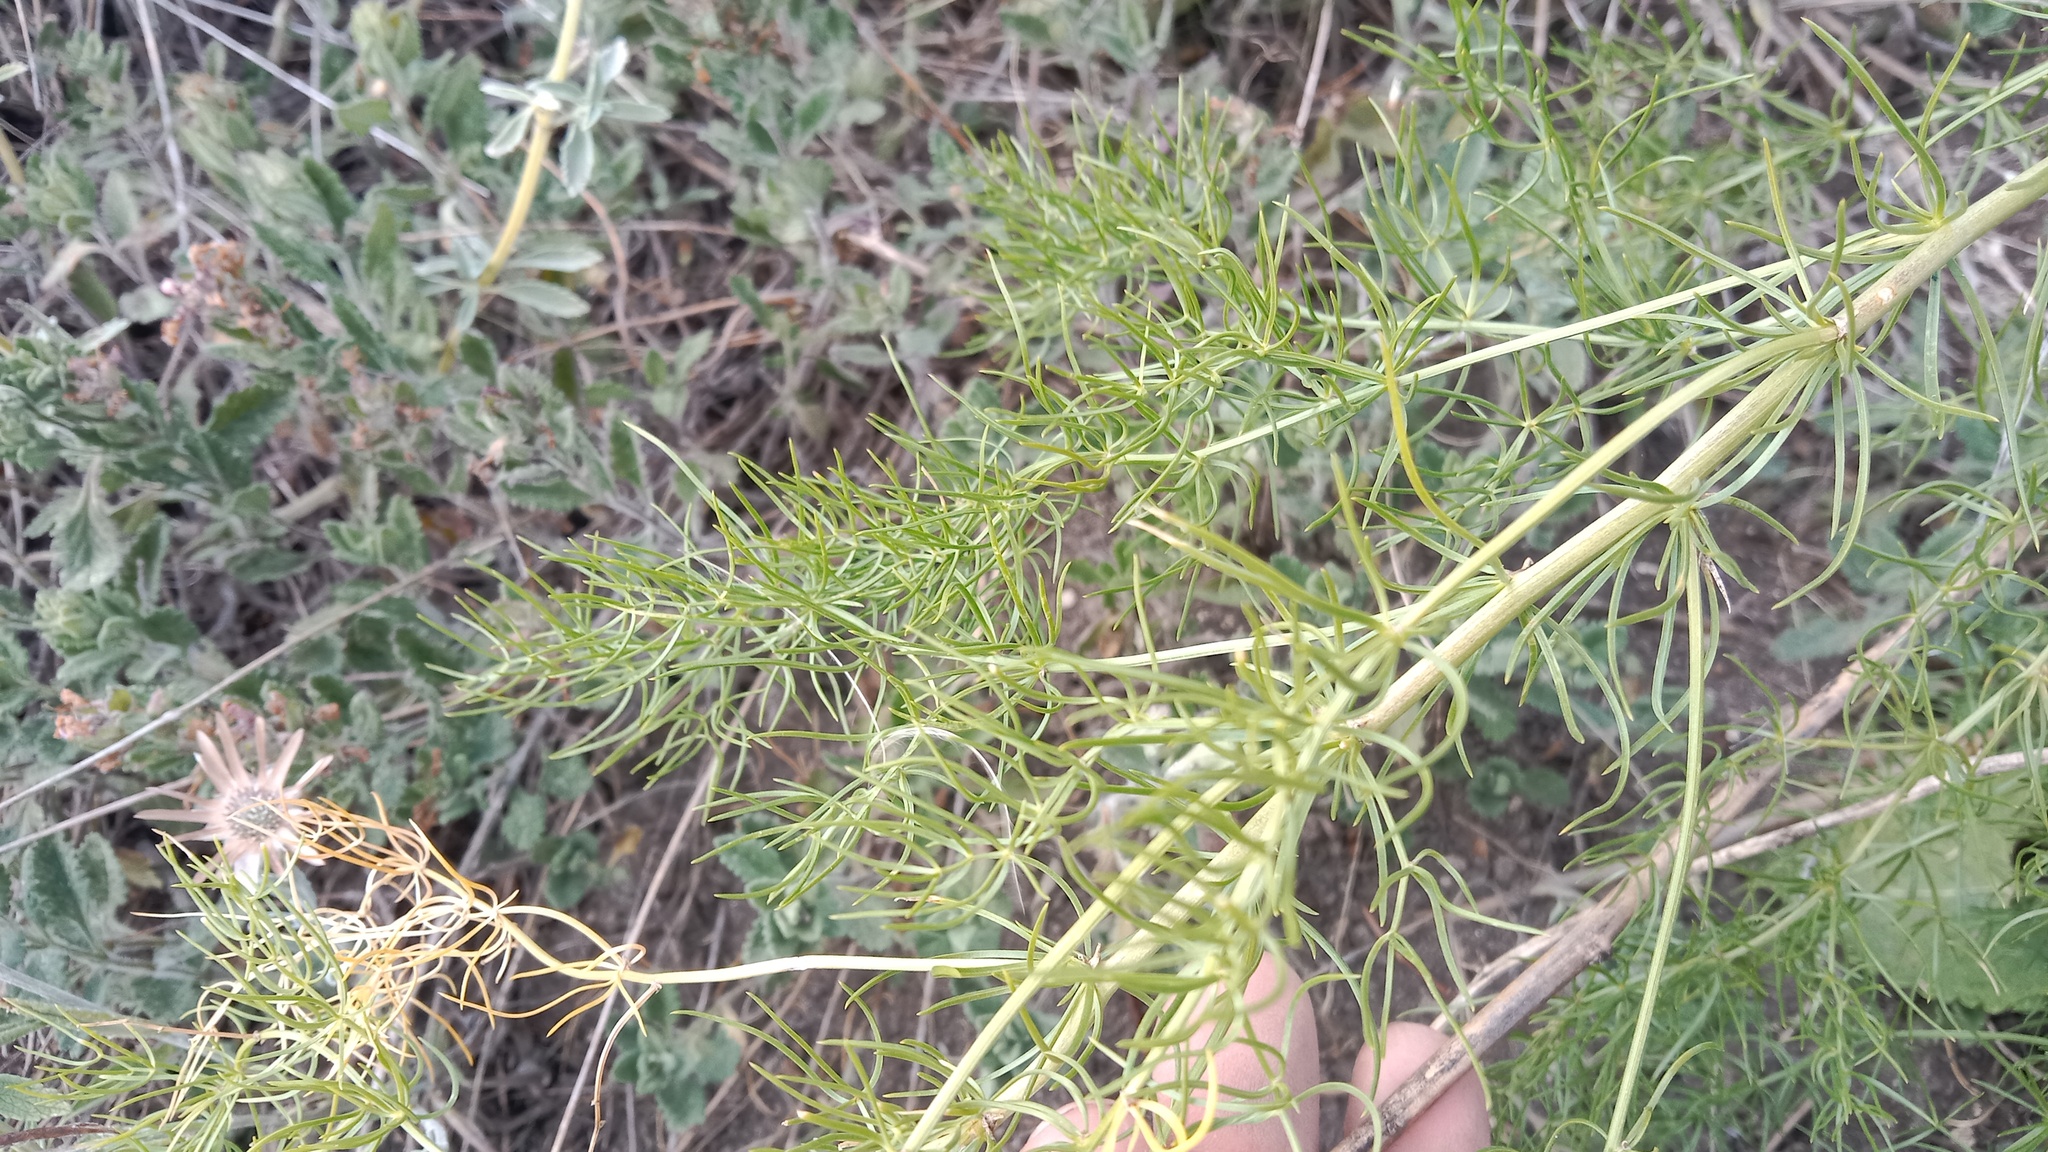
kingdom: Plantae
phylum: Tracheophyta
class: Magnoliopsida
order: Ranunculales
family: Ranunculaceae
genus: Adonis
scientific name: Adonis vernalis
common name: Yellow pheasants-eye
